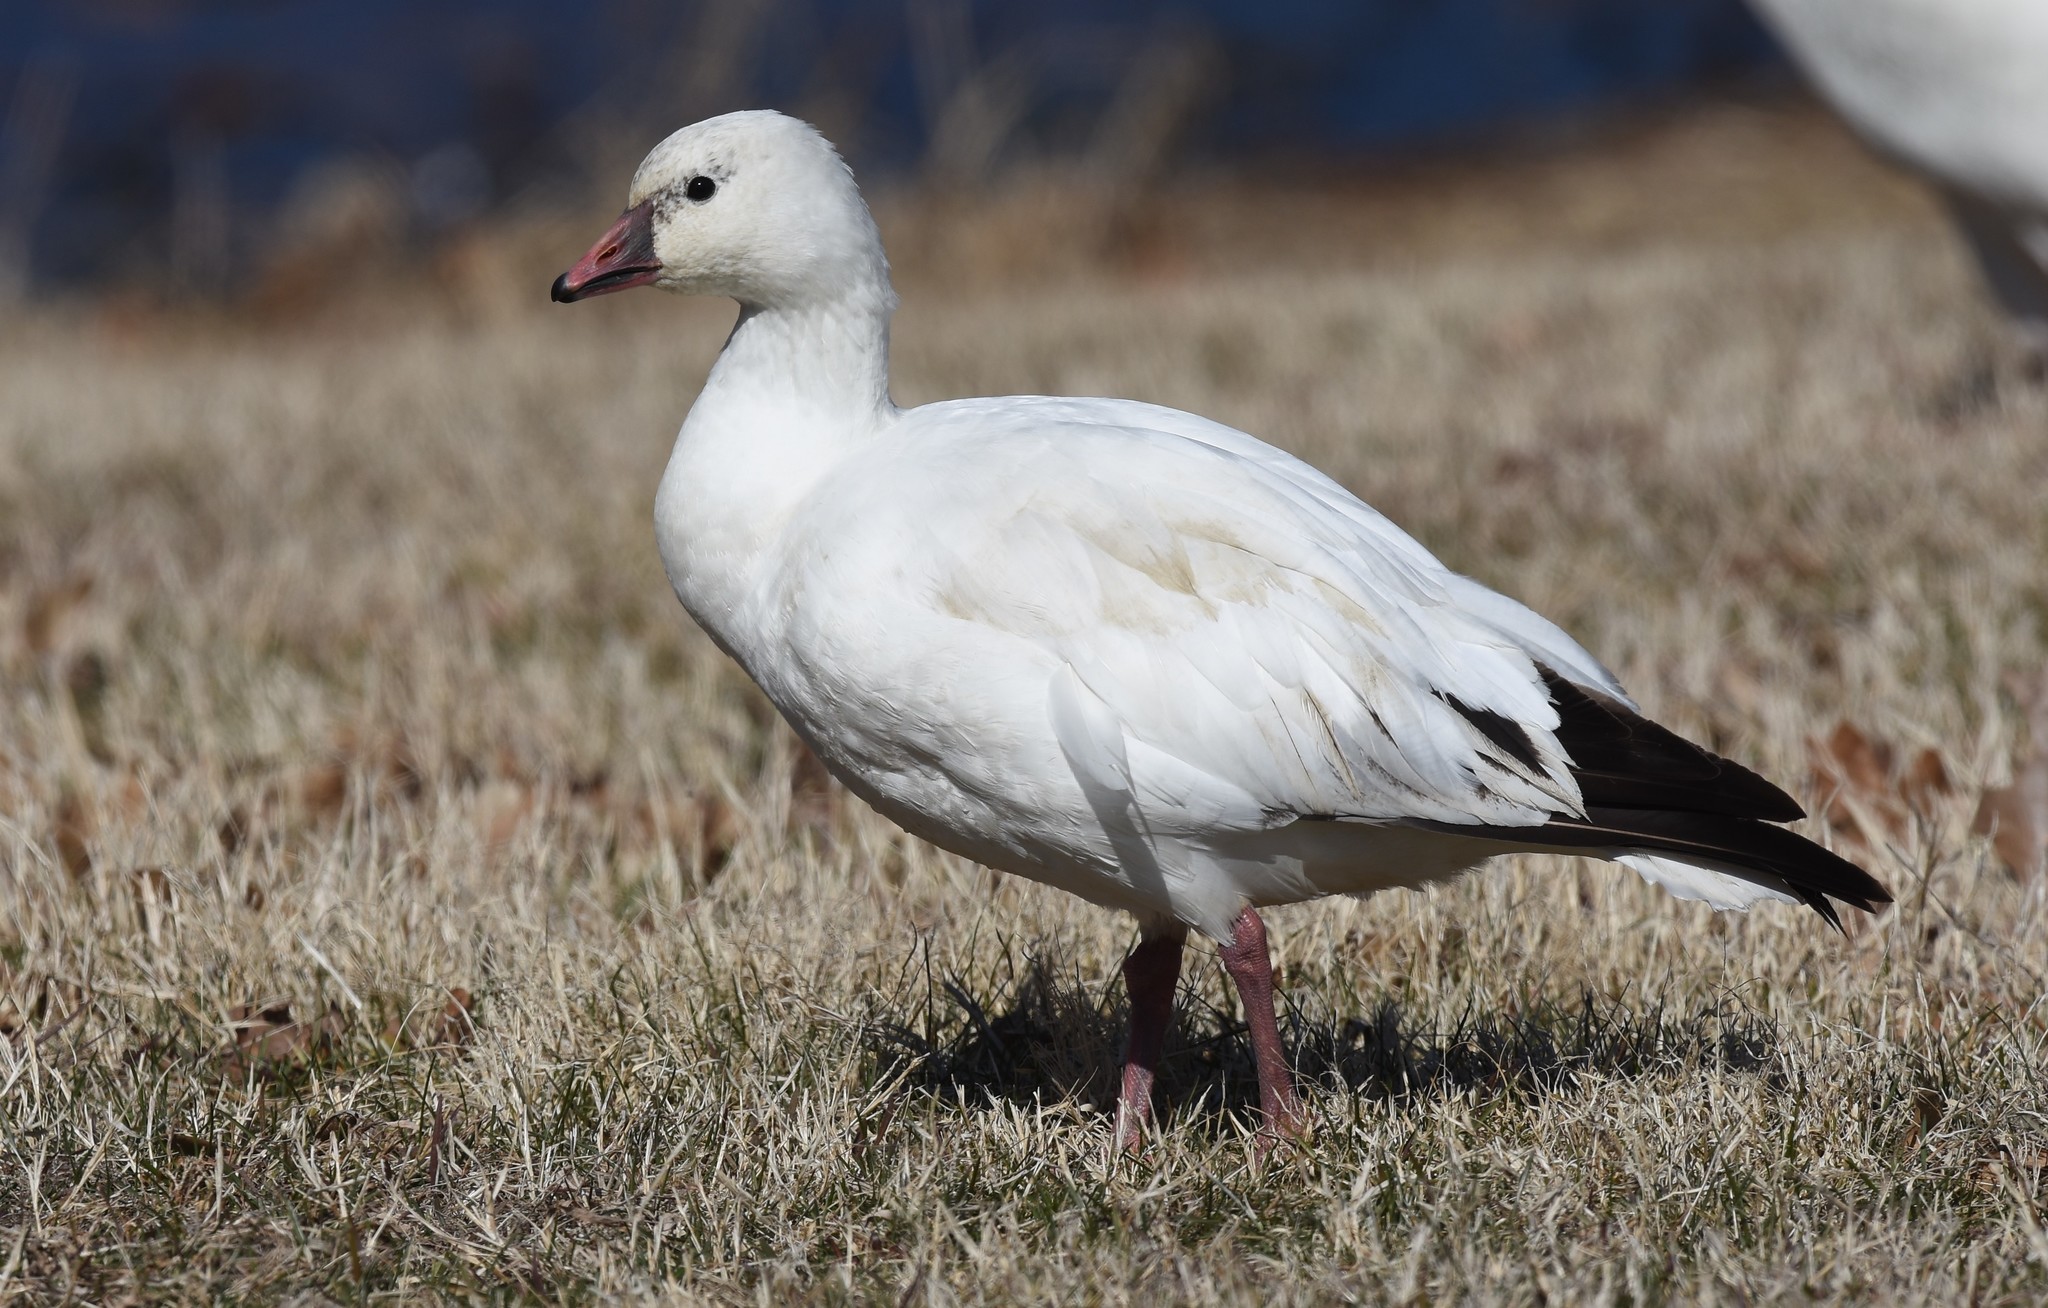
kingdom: Animalia
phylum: Chordata
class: Aves
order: Anseriformes
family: Anatidae
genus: Anser
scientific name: Anser rossii
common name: Ross's goose
